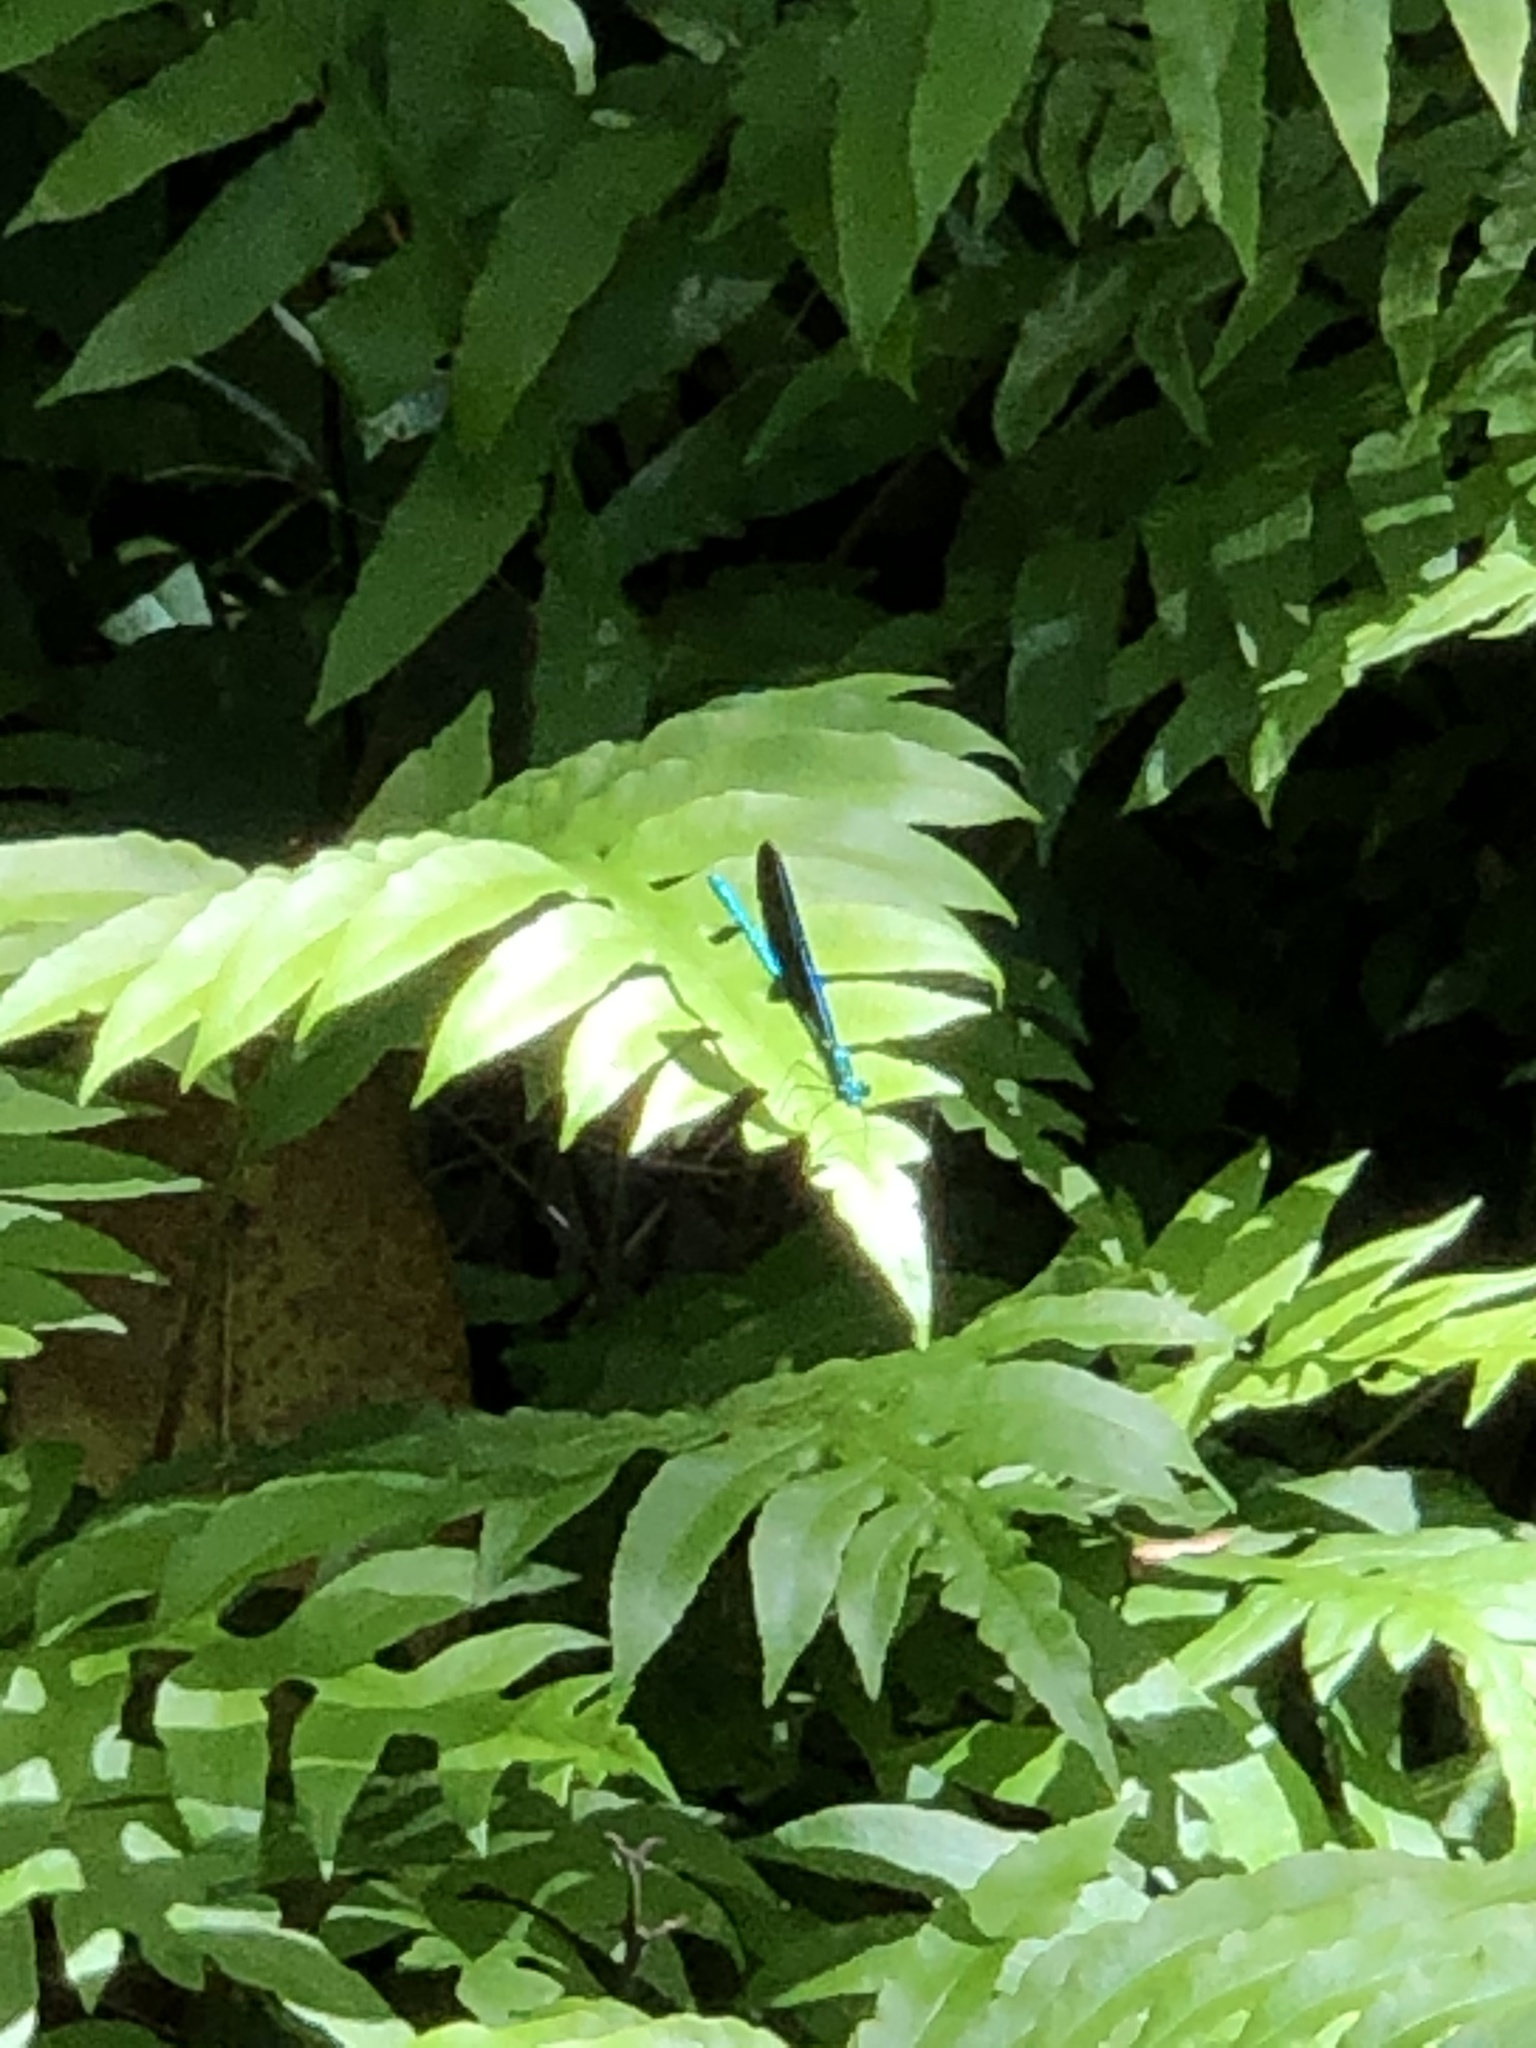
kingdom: Animalia
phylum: Arthropoda
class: Insecta
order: Odonata
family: Calopterygidae
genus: Calopteryx
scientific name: Calopteryx maculata
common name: Ebony jewelwing
